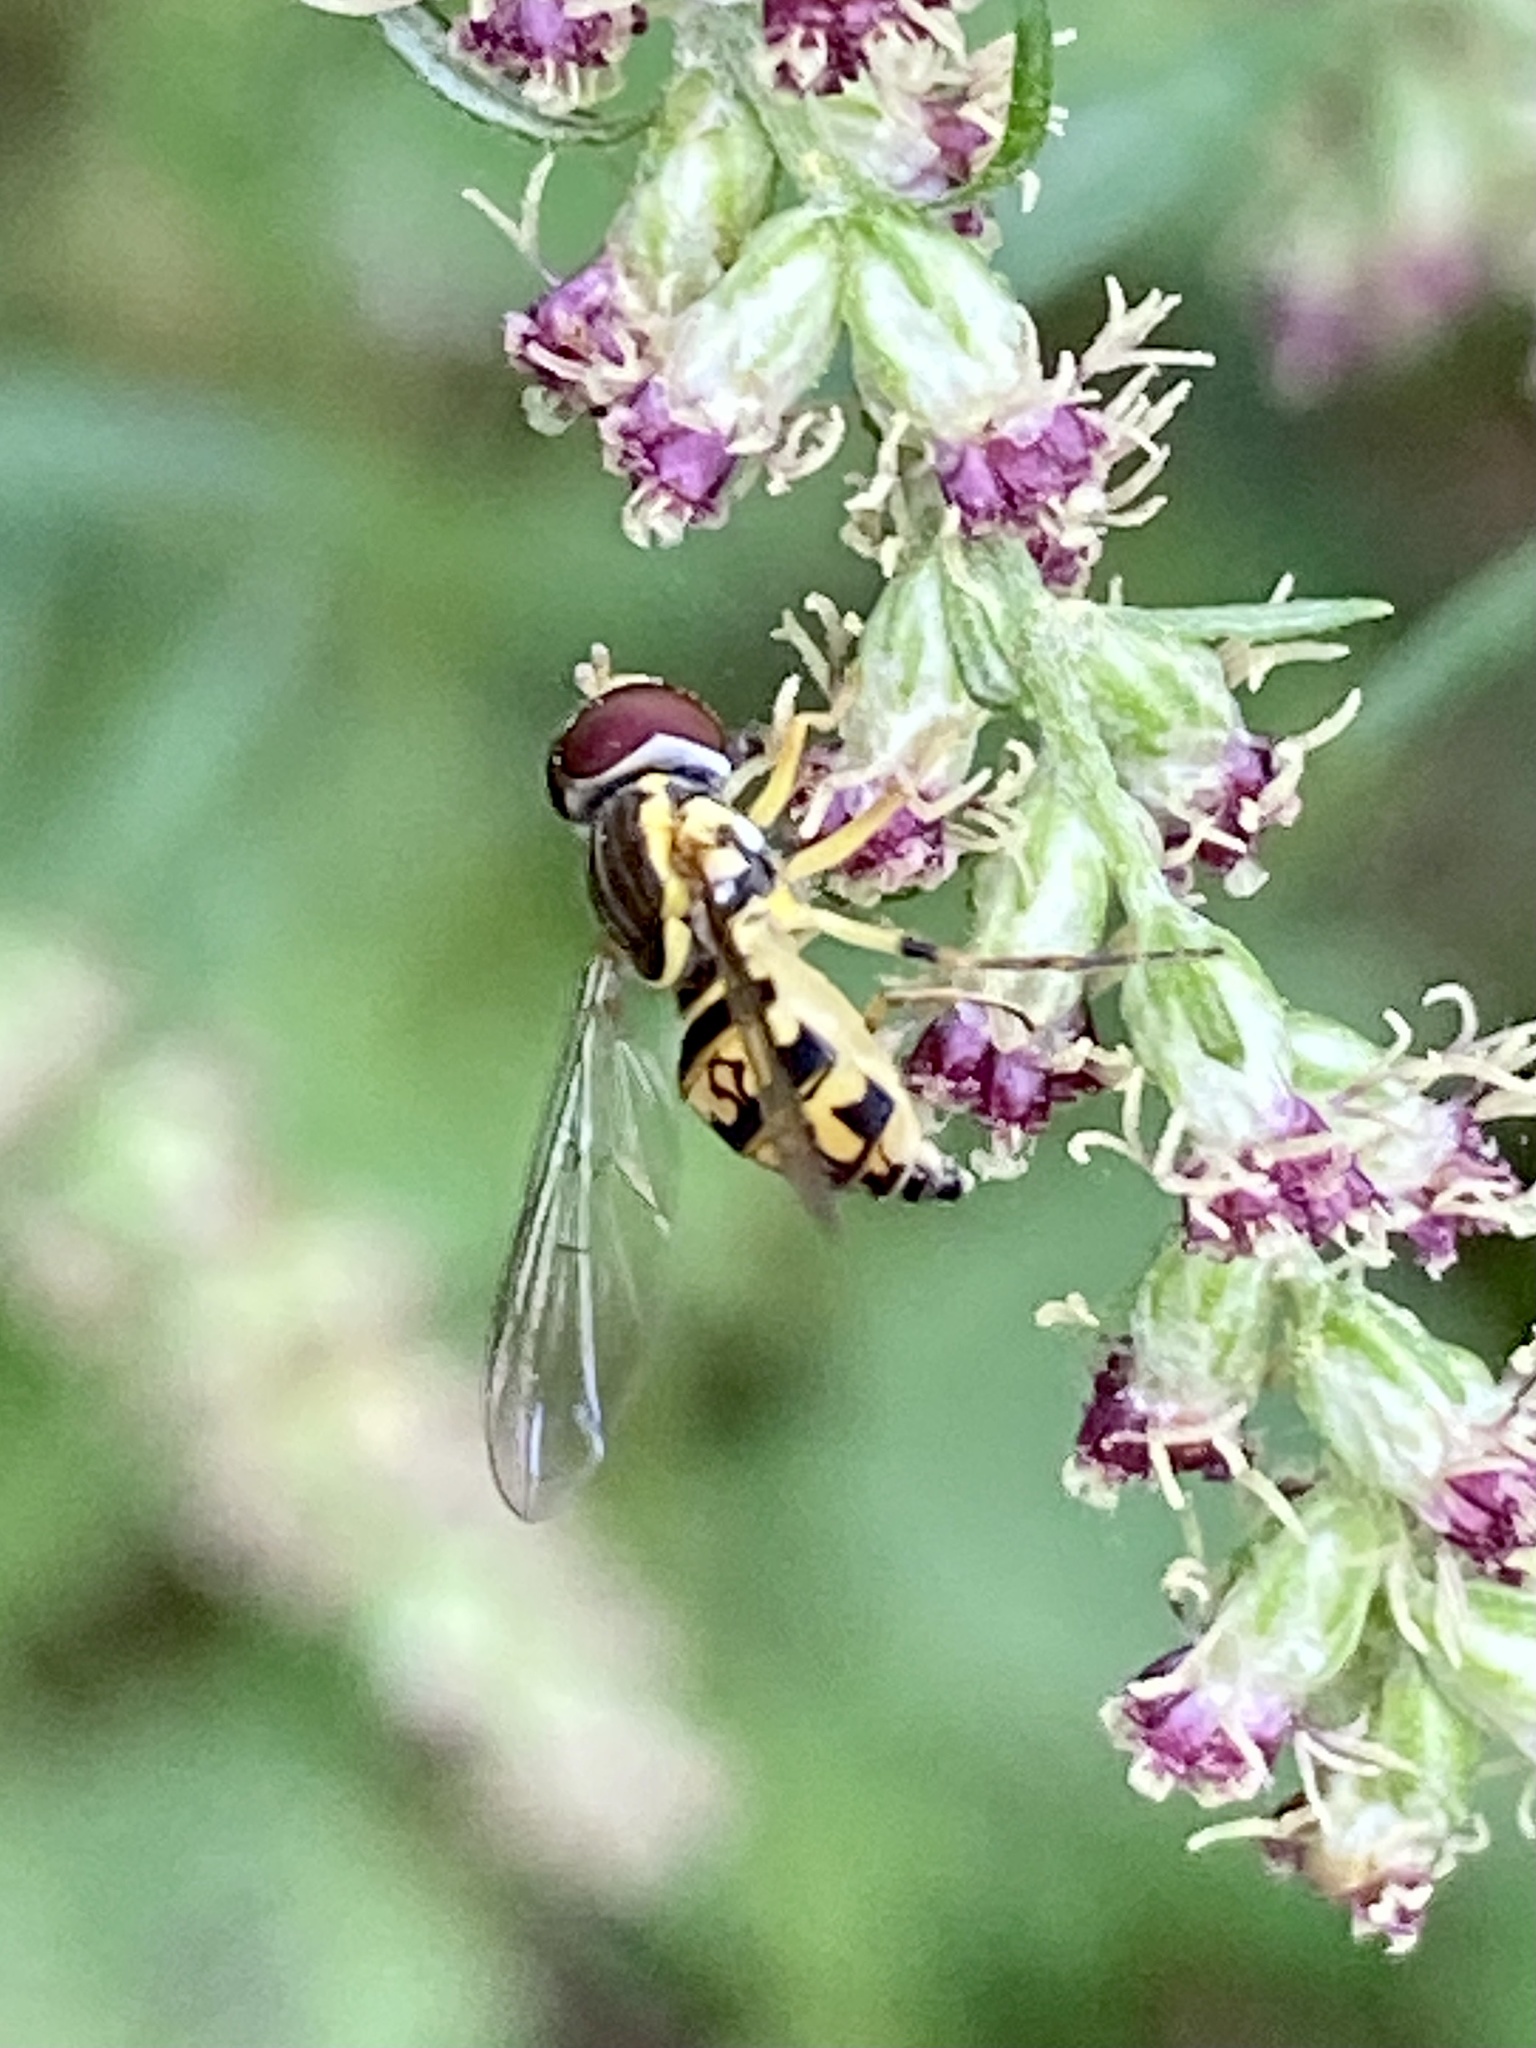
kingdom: Animalia
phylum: Arthropoda
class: Insecta
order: Diptera
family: Syrphidae
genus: Toxomerus
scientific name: Toxomerus geminatus
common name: Eastern calligrapher
